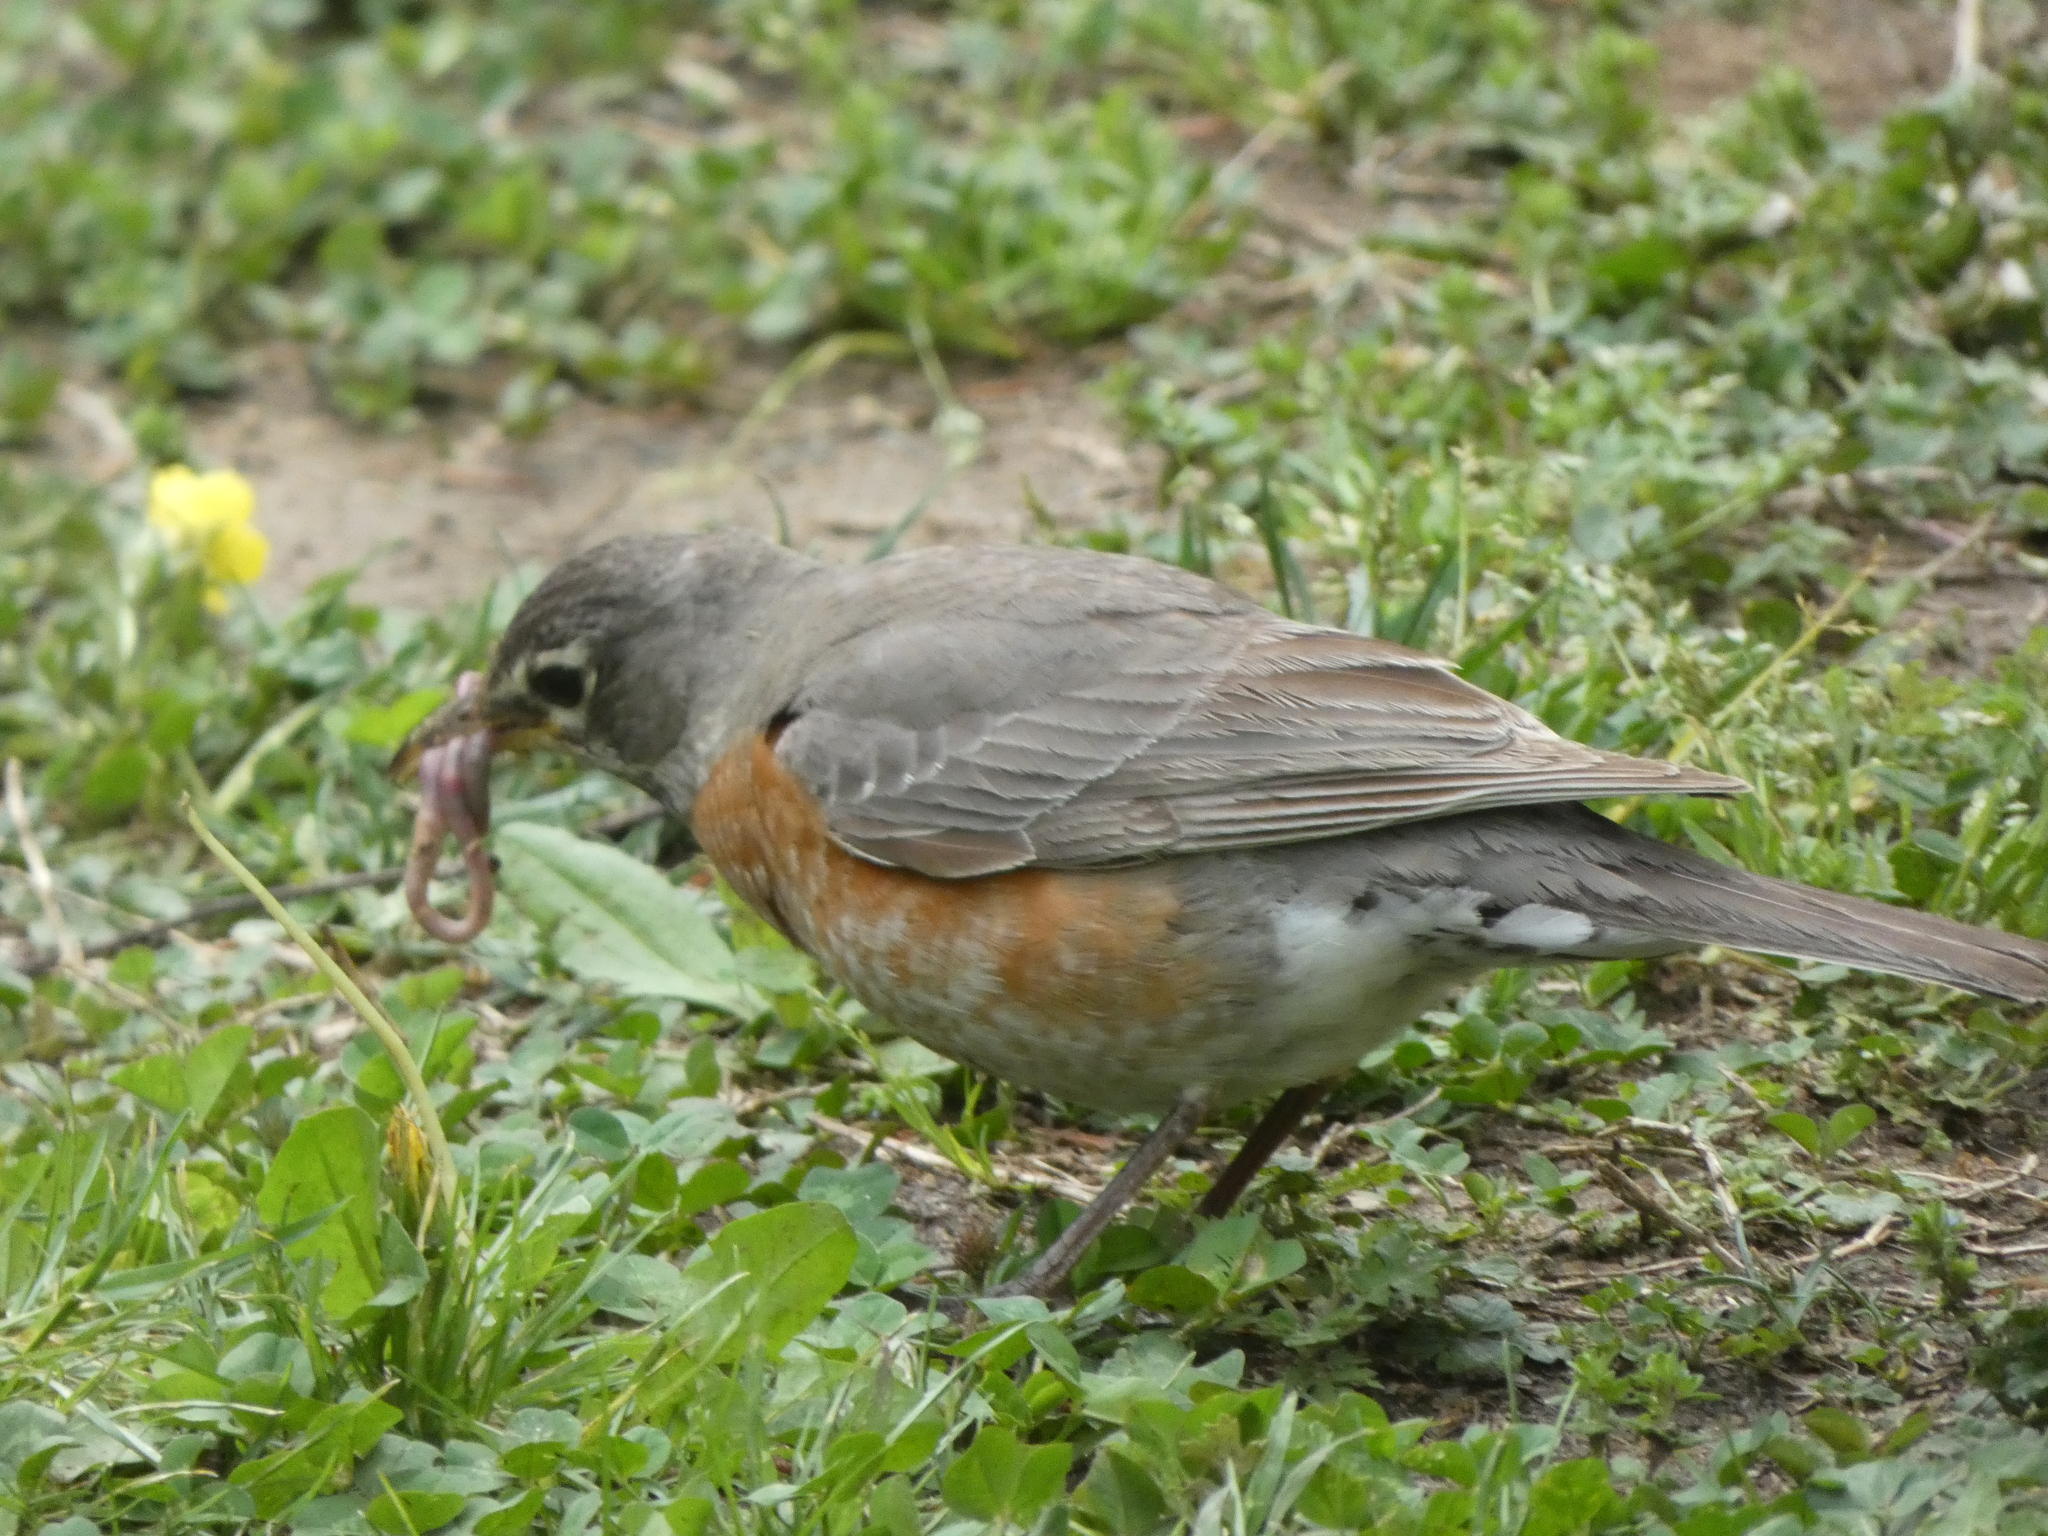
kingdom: Animalia
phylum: Chordata
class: Aves
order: Passeriformes
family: Turdidae
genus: Turdus
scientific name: Turdus migratorius
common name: American robin
